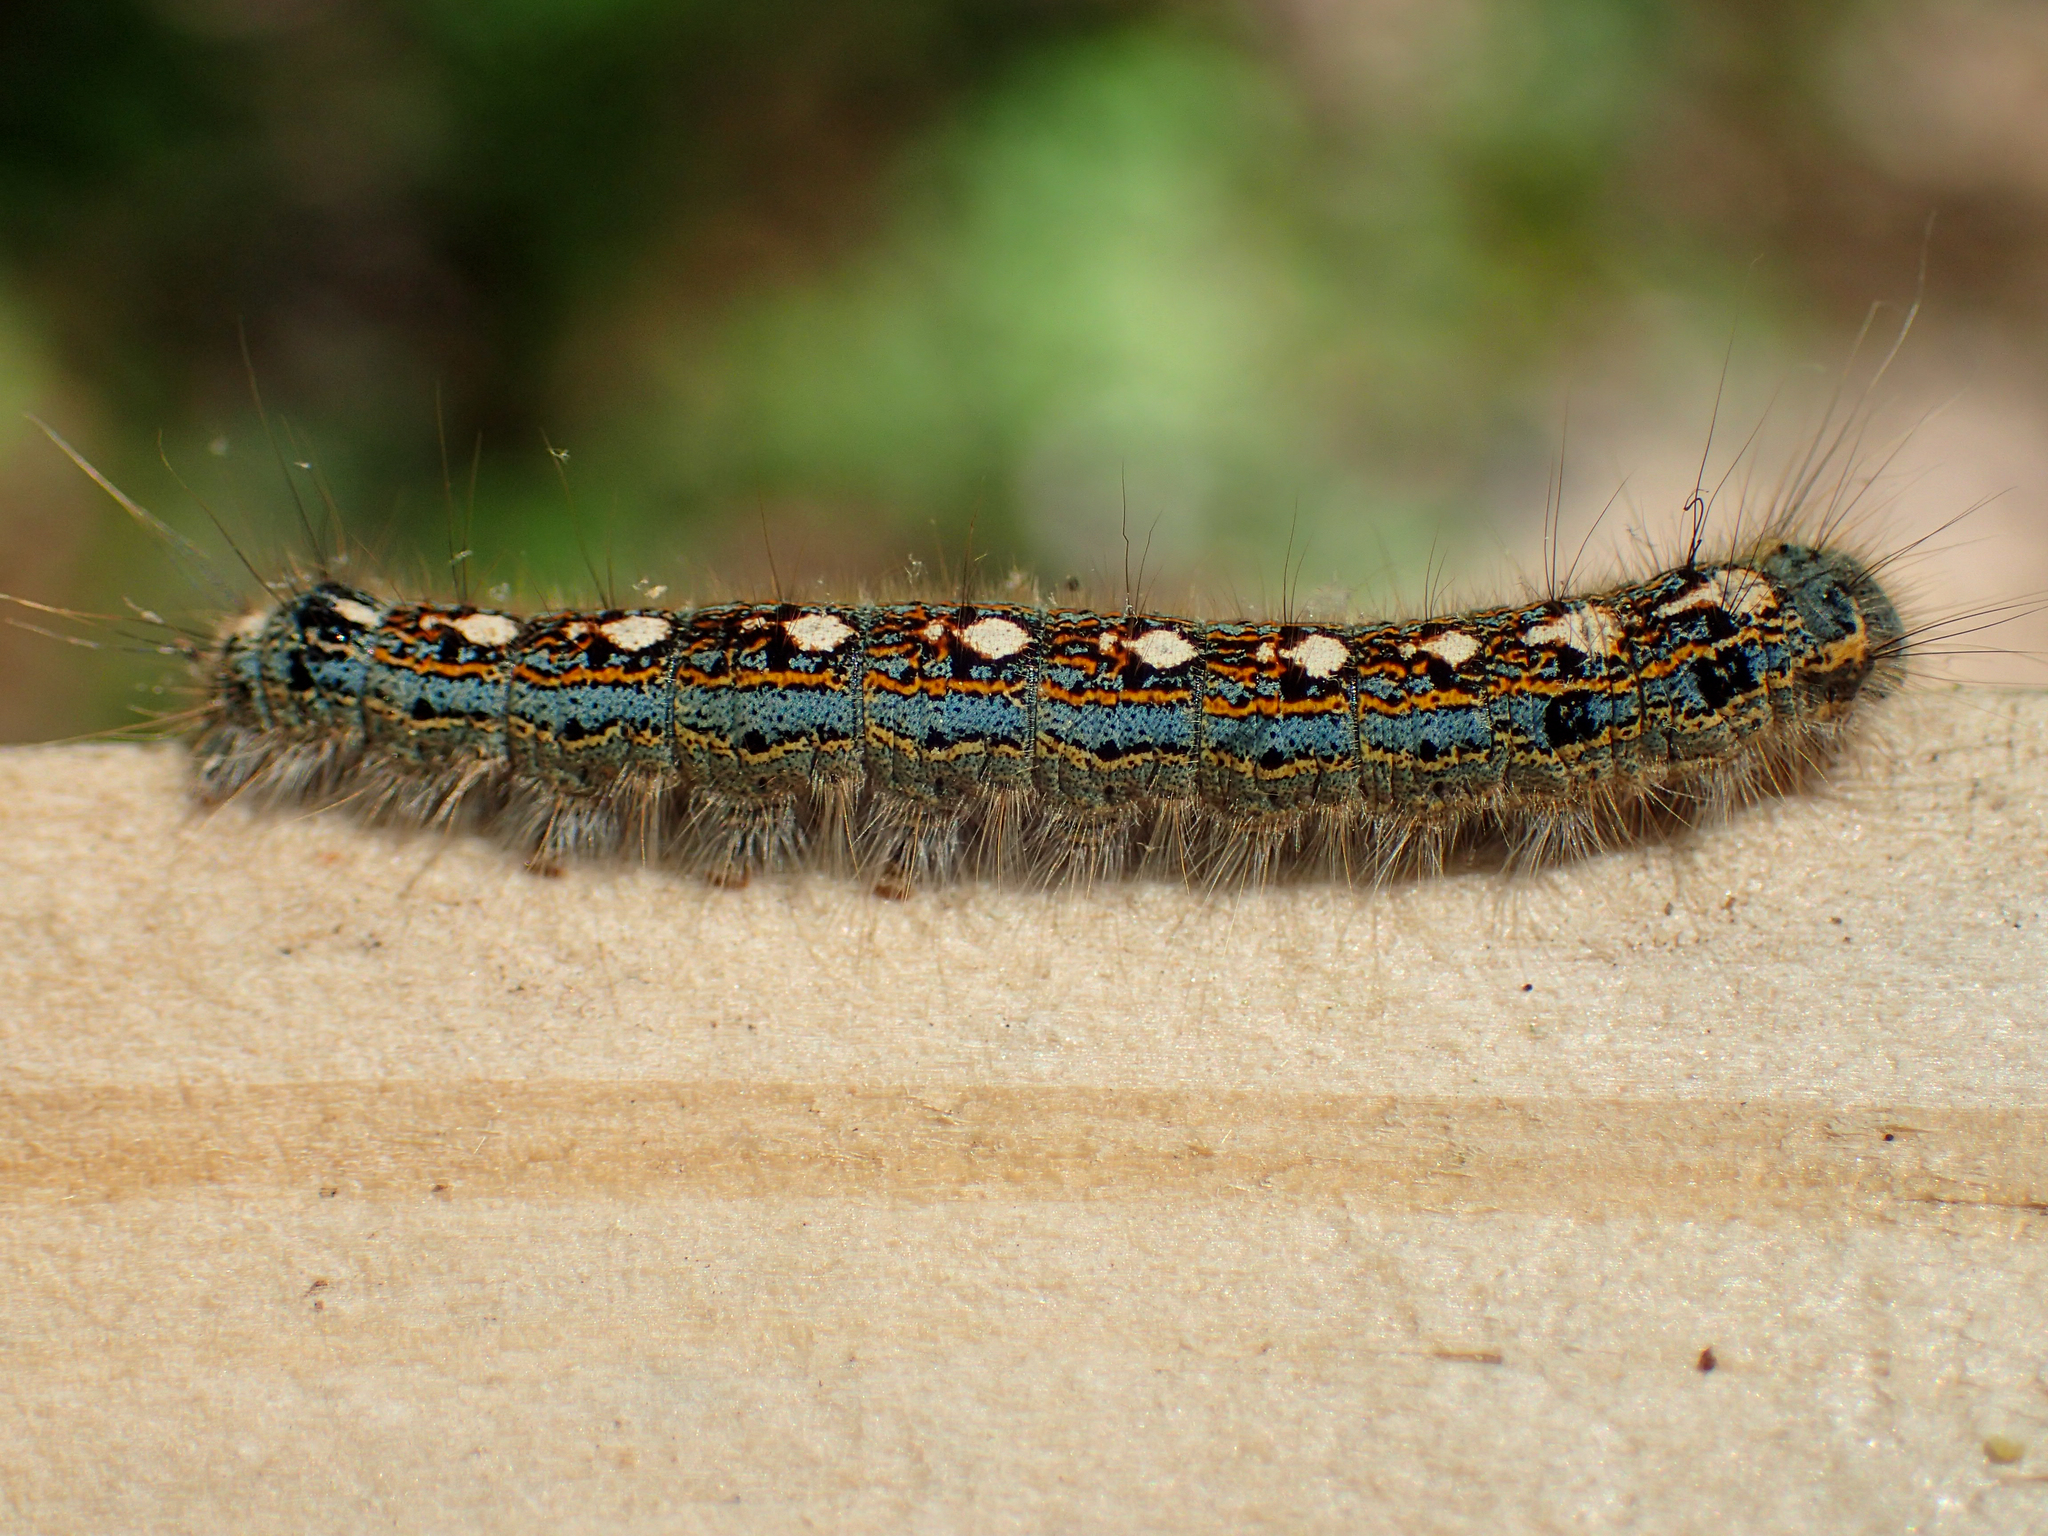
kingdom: Animalia
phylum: Arthropoda
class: Insecta
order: Lepidoptera
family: Lasiocampidae
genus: Malacosoma
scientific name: Malacosoma disstria
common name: Forest tent caterpillar
